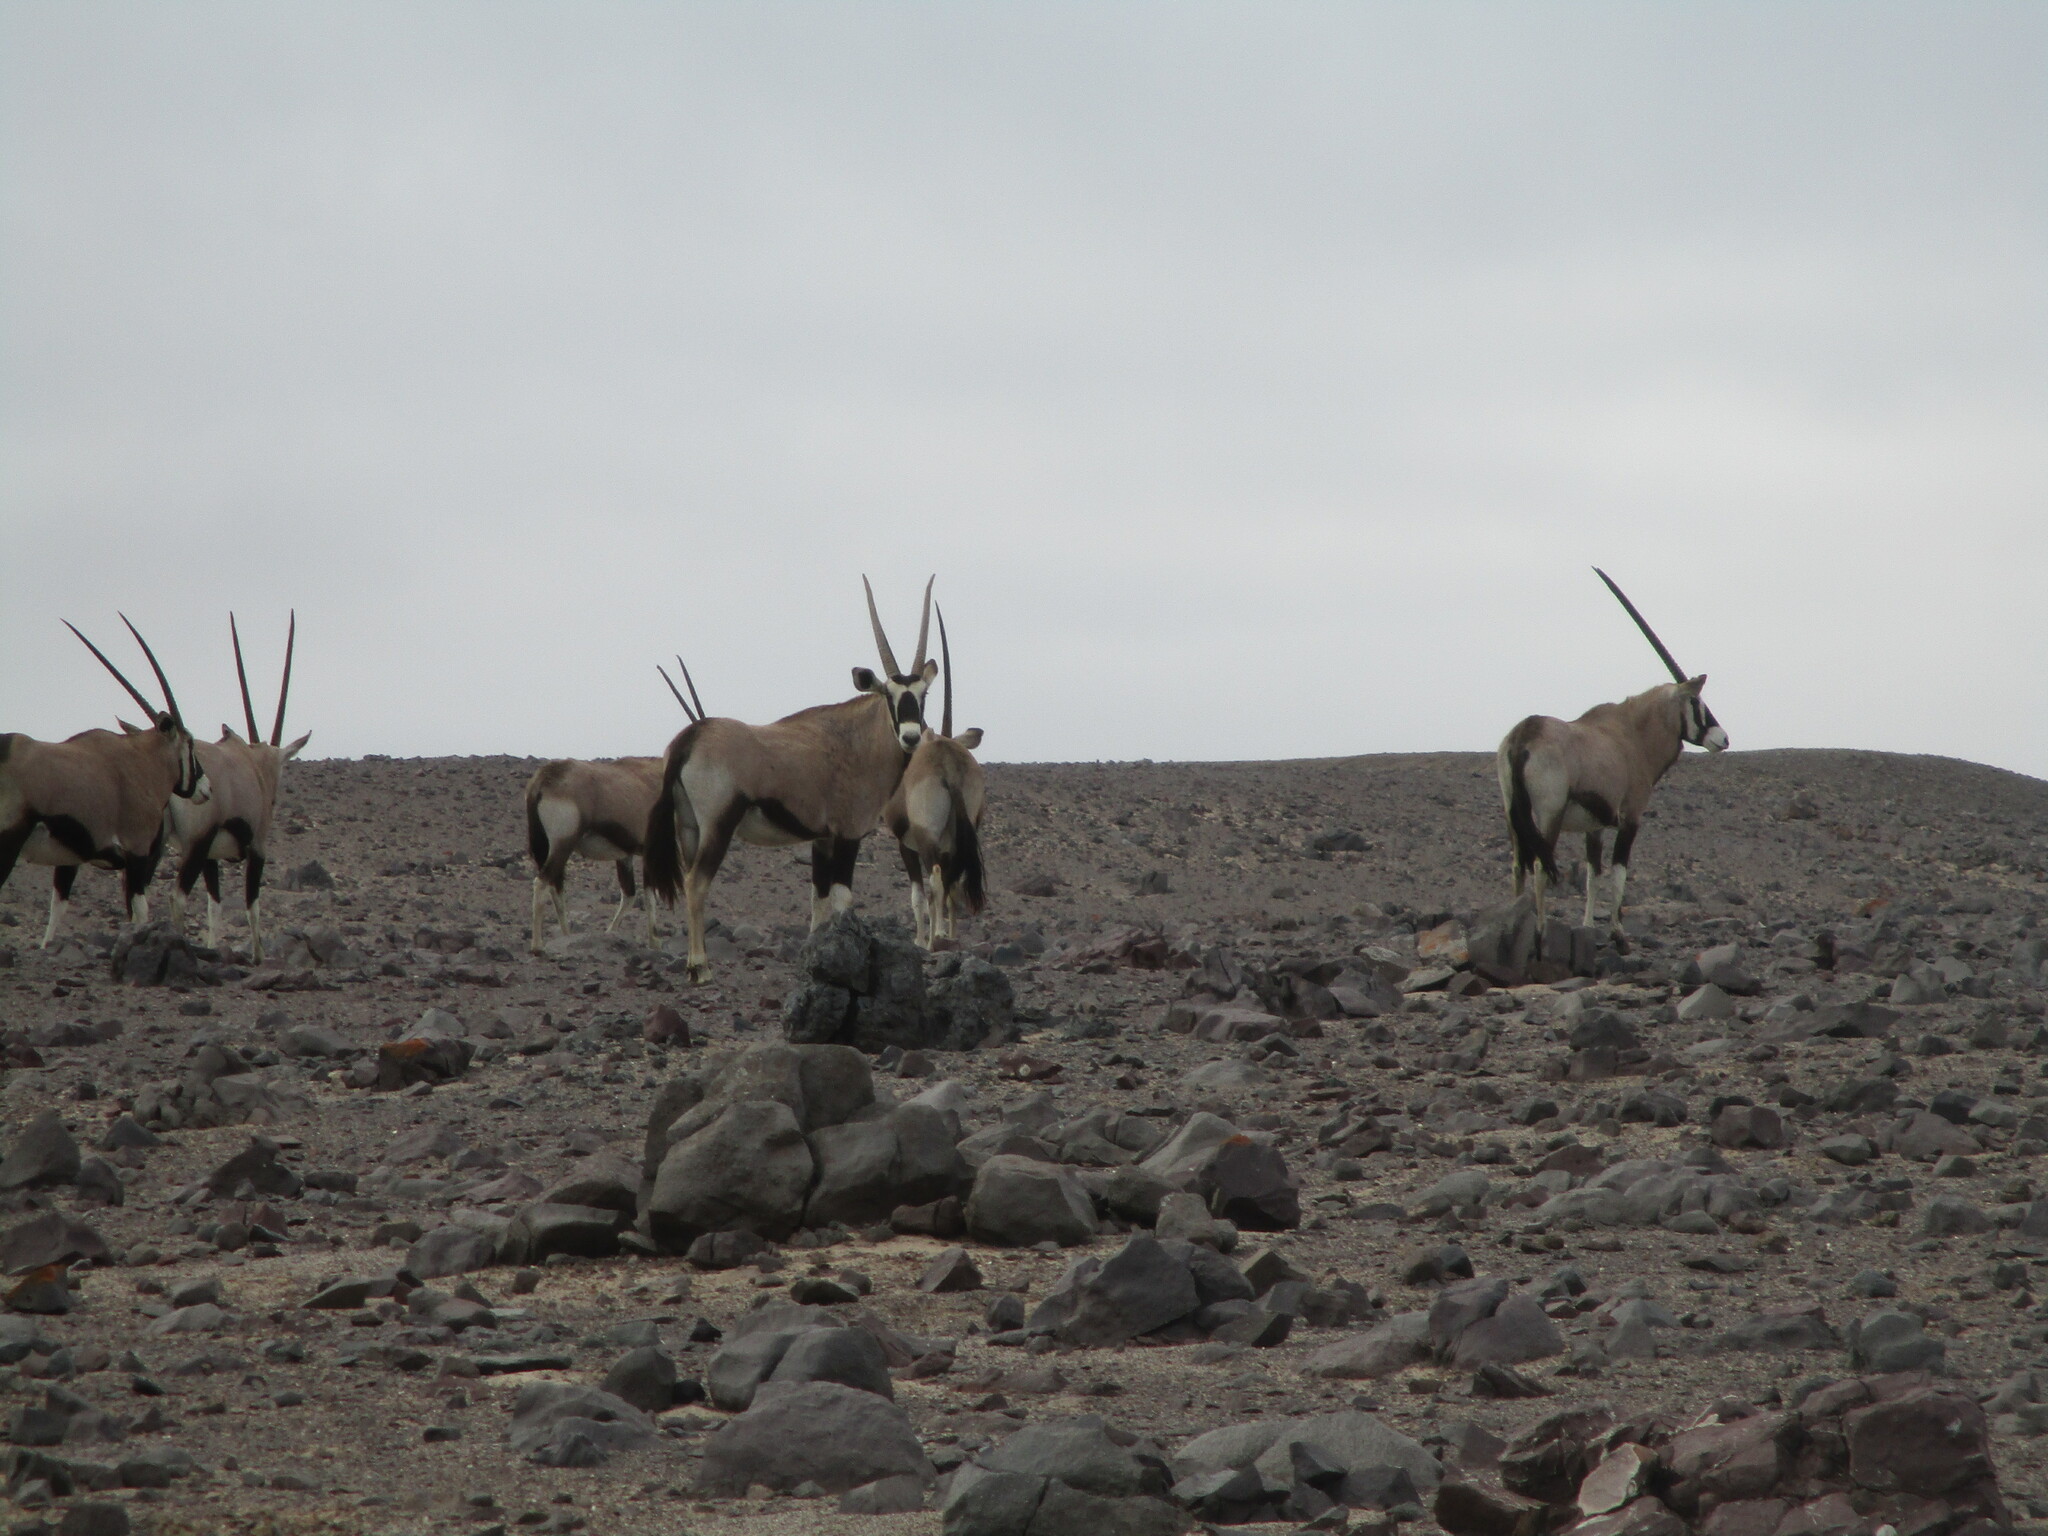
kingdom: Animalia
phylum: Chordata
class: Mammalia
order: Artiodactyla
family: Bovidae
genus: Oryx
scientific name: Oryx gazella
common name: Gemsbok
